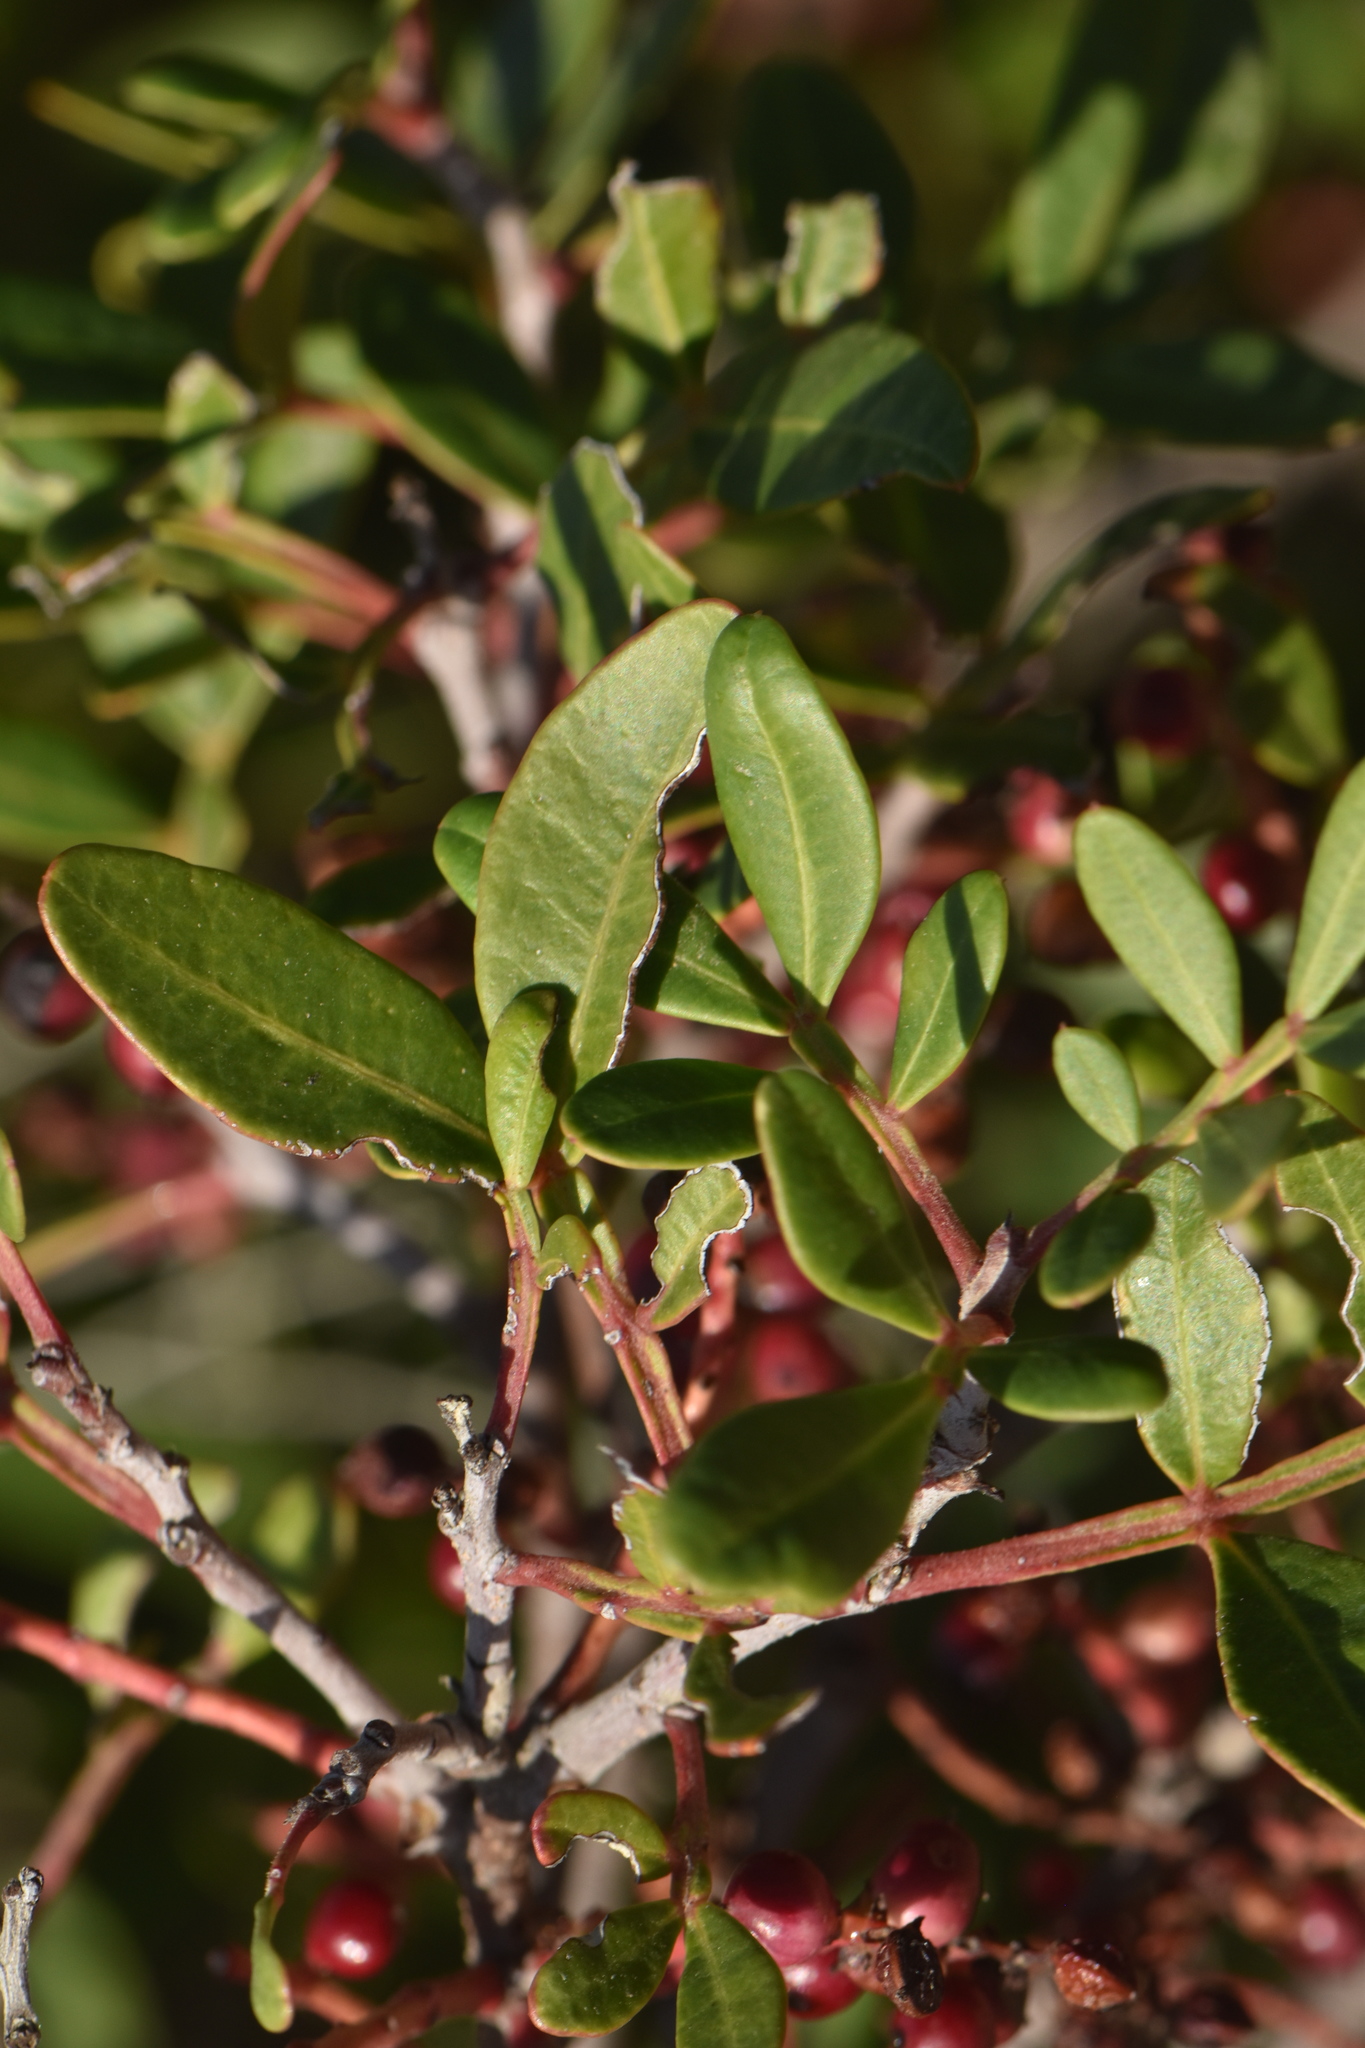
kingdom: Plantae
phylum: Tracheophyta
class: Magnoliopsida
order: Sapindales
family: Anacardiaceae
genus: Pistacia
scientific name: Pistacia lentiscus
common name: Lentisk
